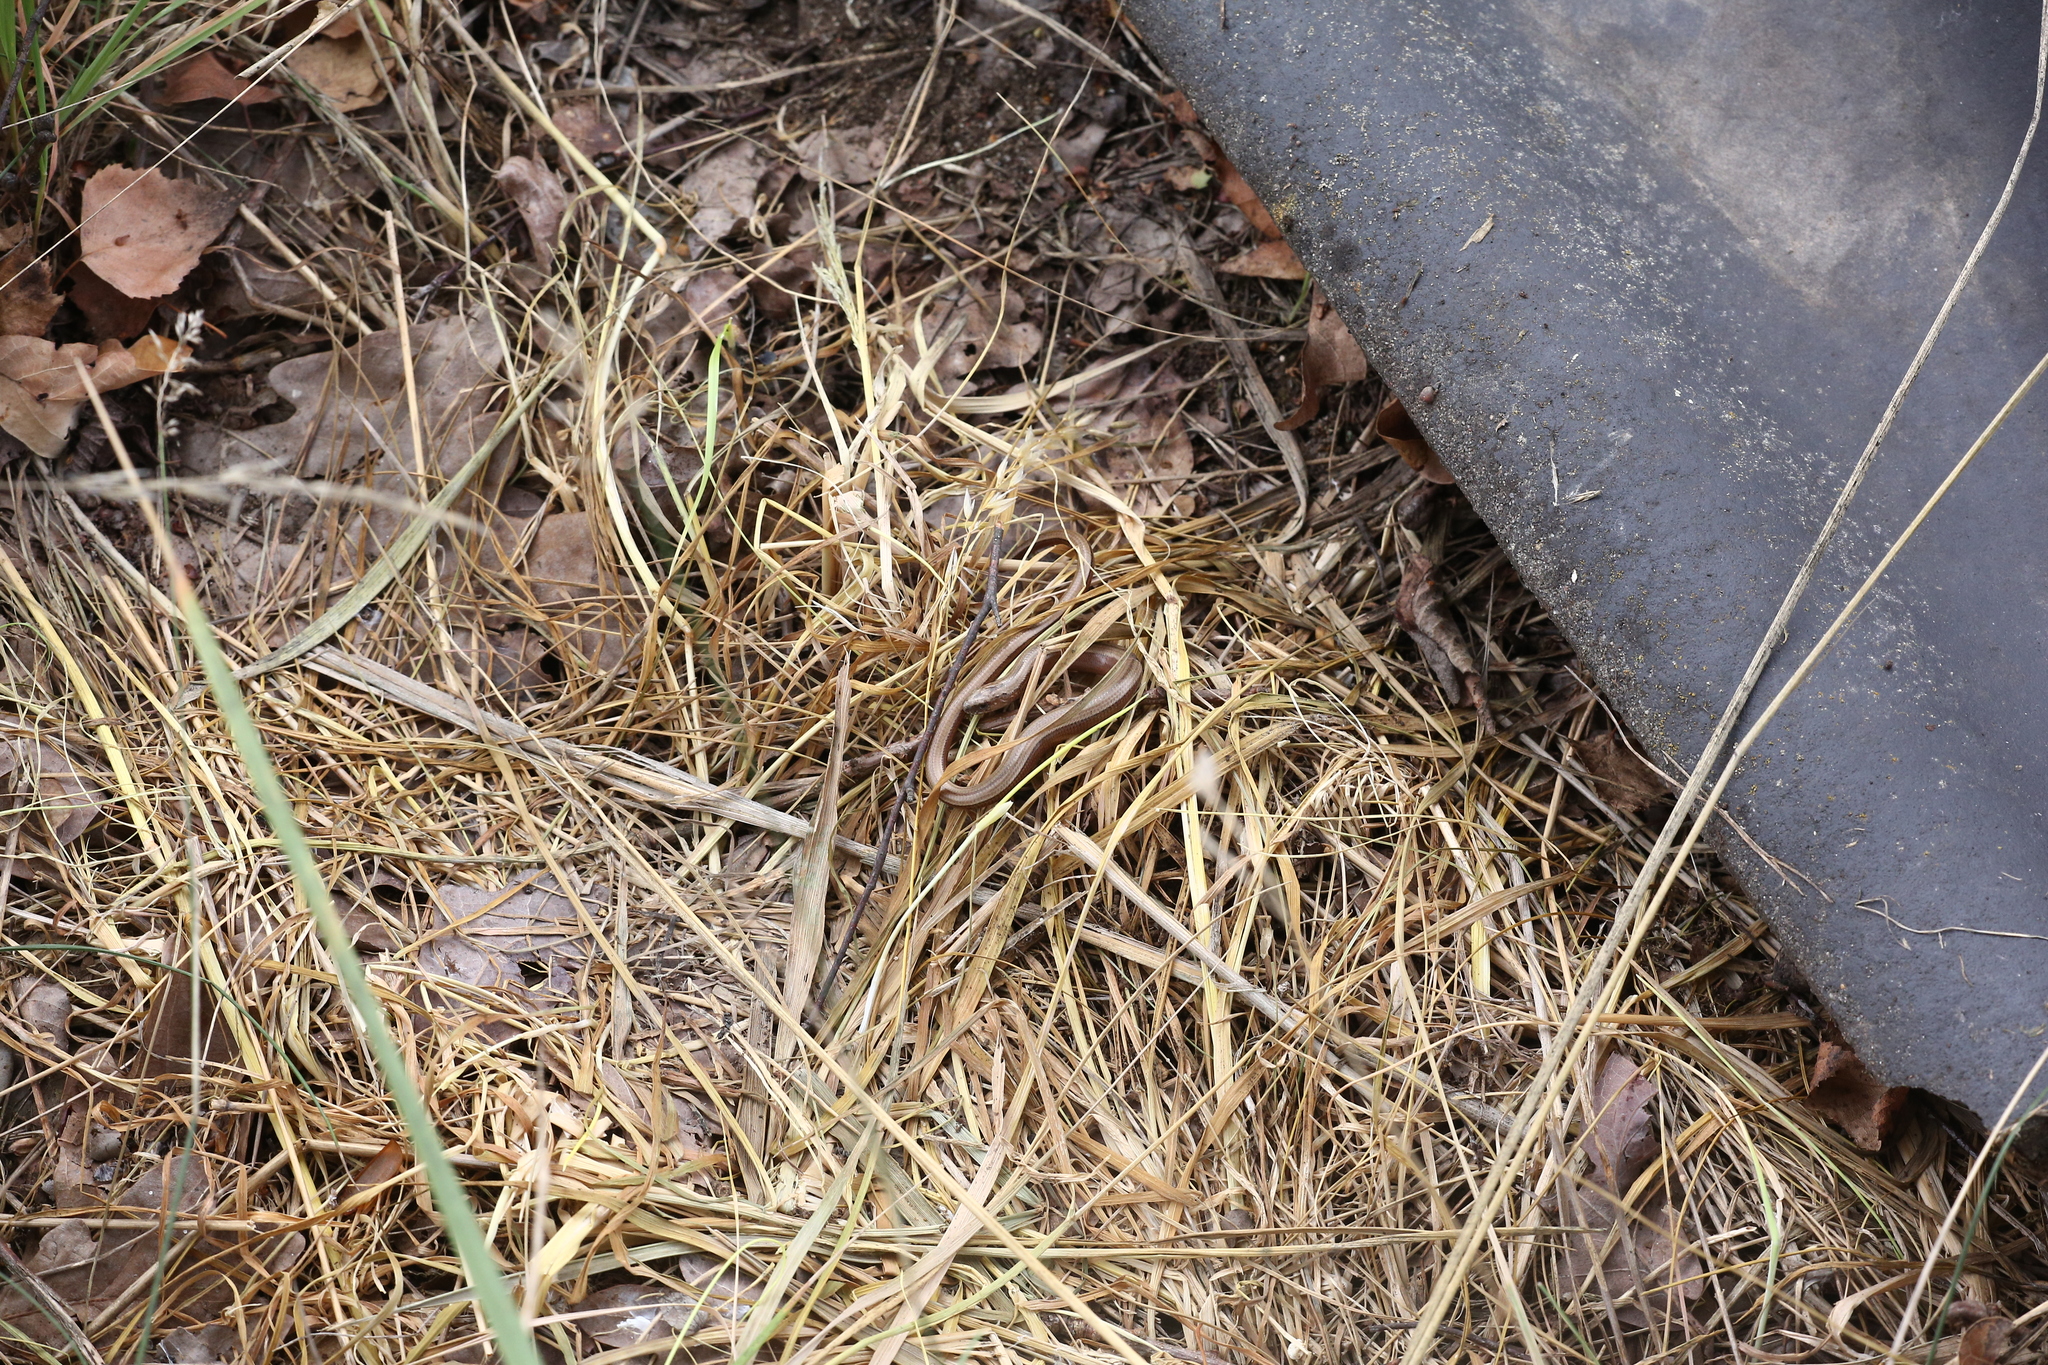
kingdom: Animalia
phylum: Chordata
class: Squamata
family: Anguidae
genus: Anguis
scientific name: Anguis fragilis
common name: Slow worm
